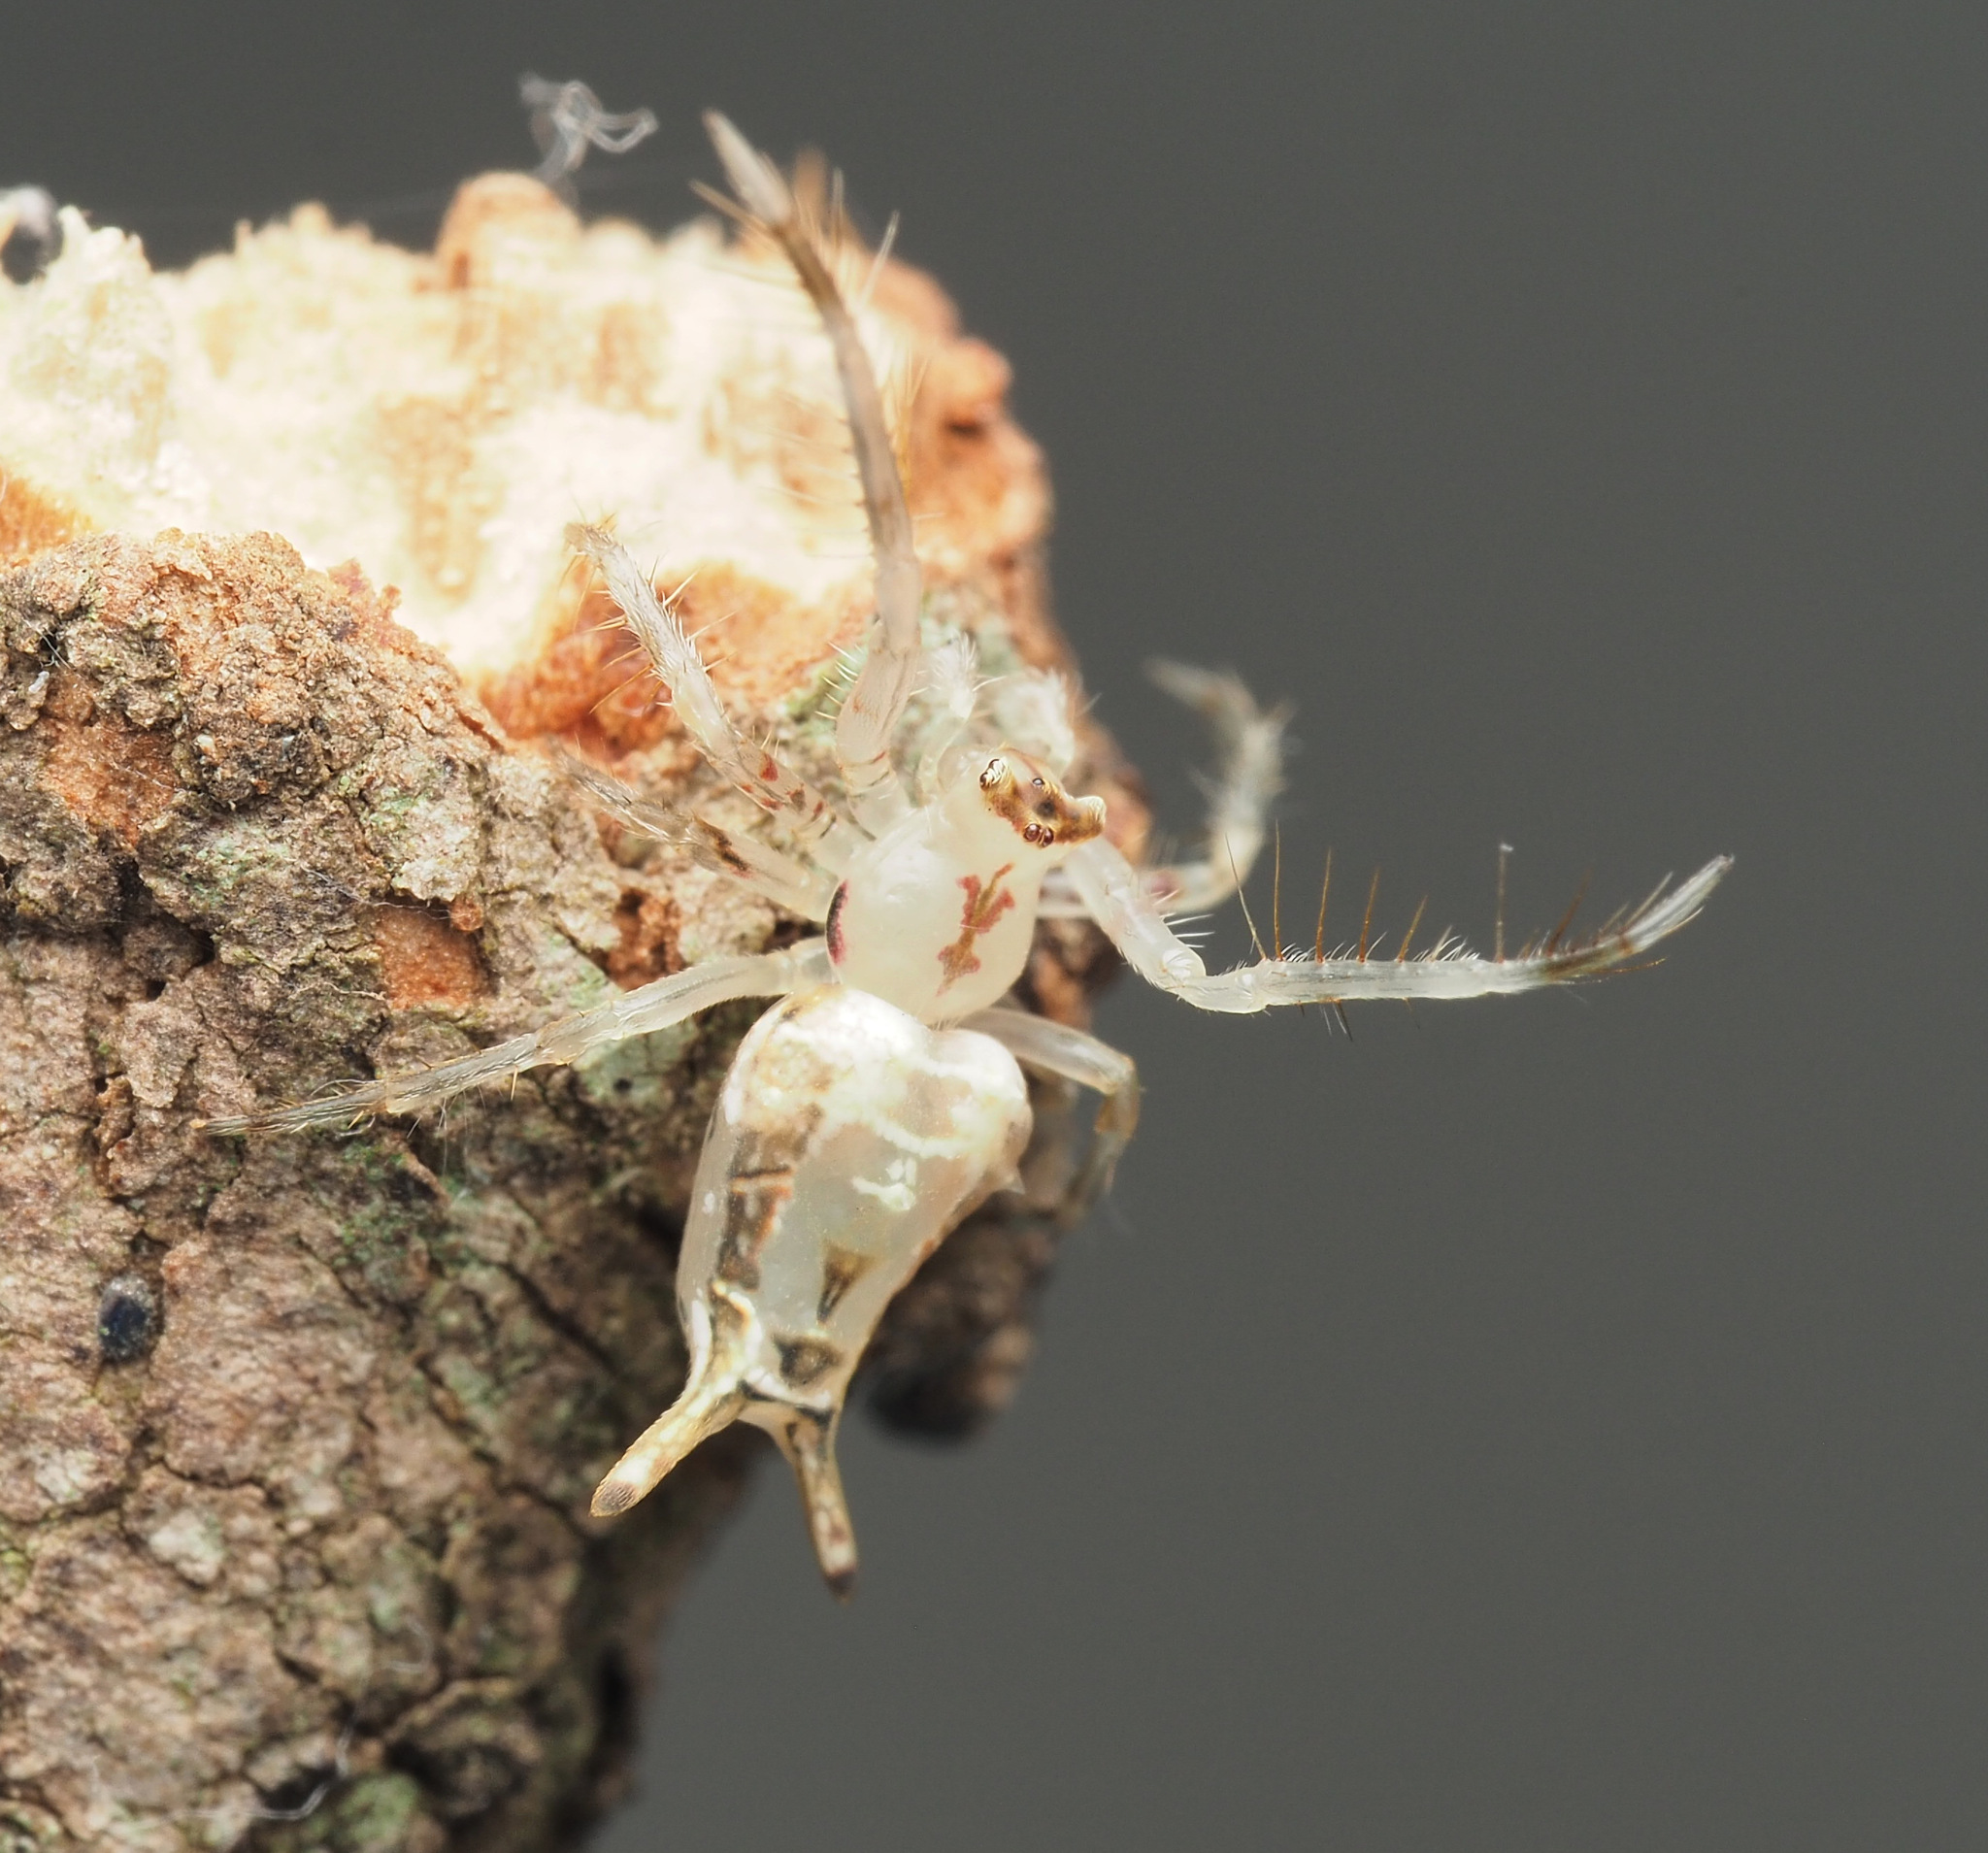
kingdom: Animalia
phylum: Arthropoda
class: Arachnida
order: Araneae
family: Arkyidae
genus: Arkys
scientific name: Arkys furcatus
